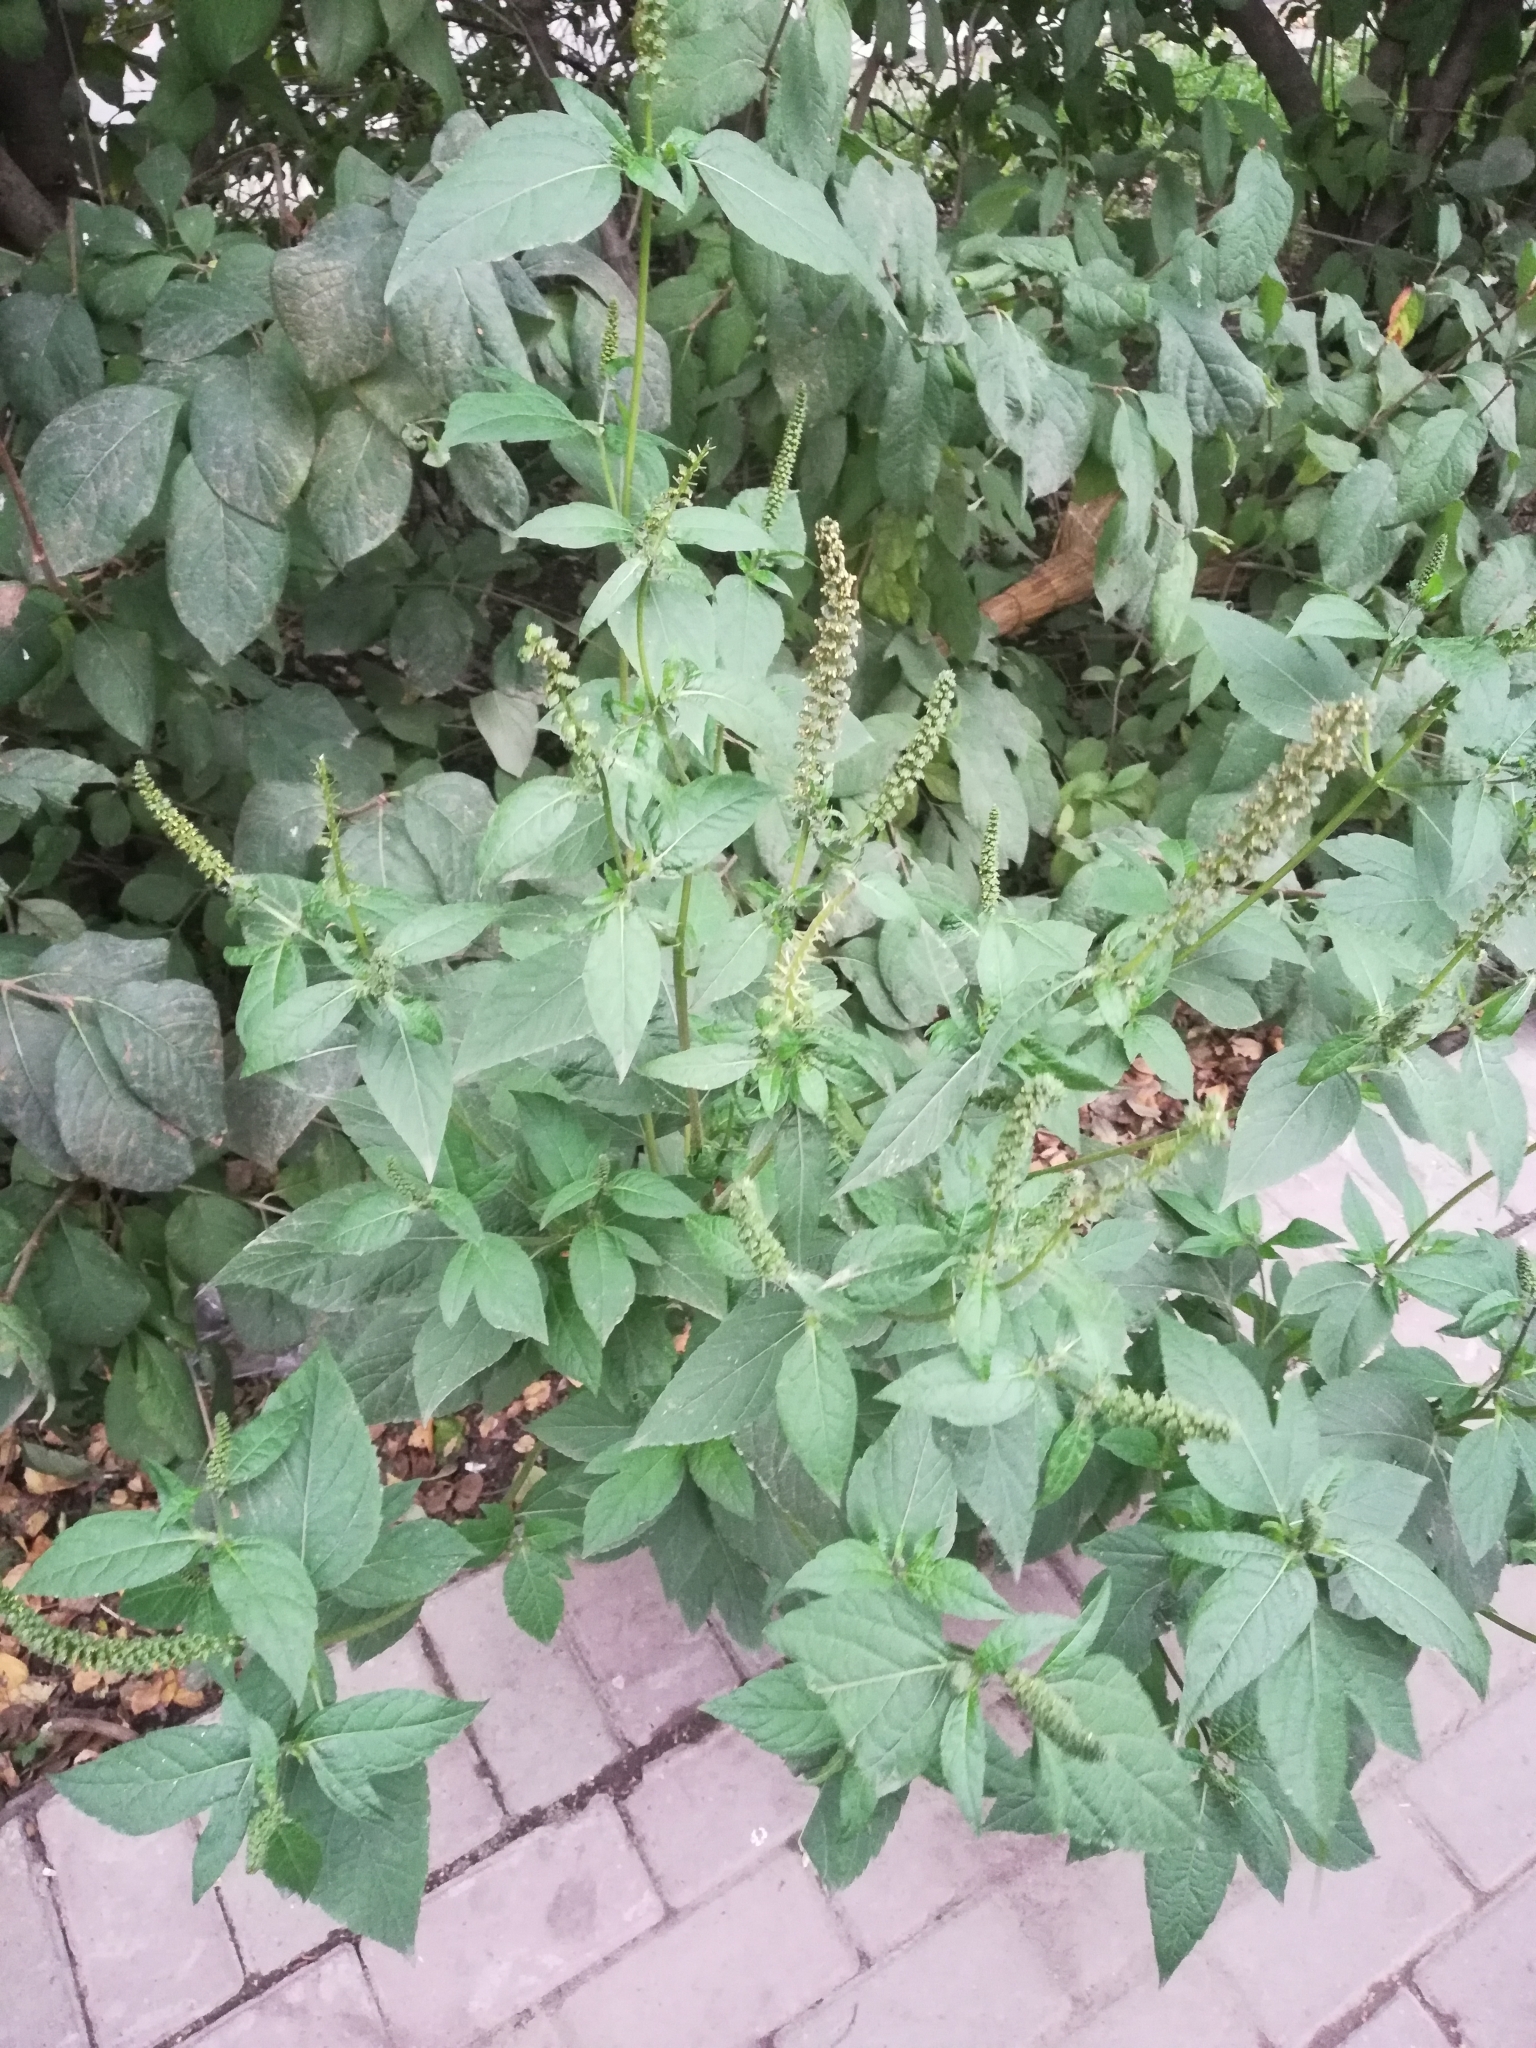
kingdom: Plantae
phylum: Tracheophyta
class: Magnoliopsida
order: Asterales
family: Asteraceae
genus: Ambrosia
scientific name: Ambrosia trifida
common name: Giant ragweed
